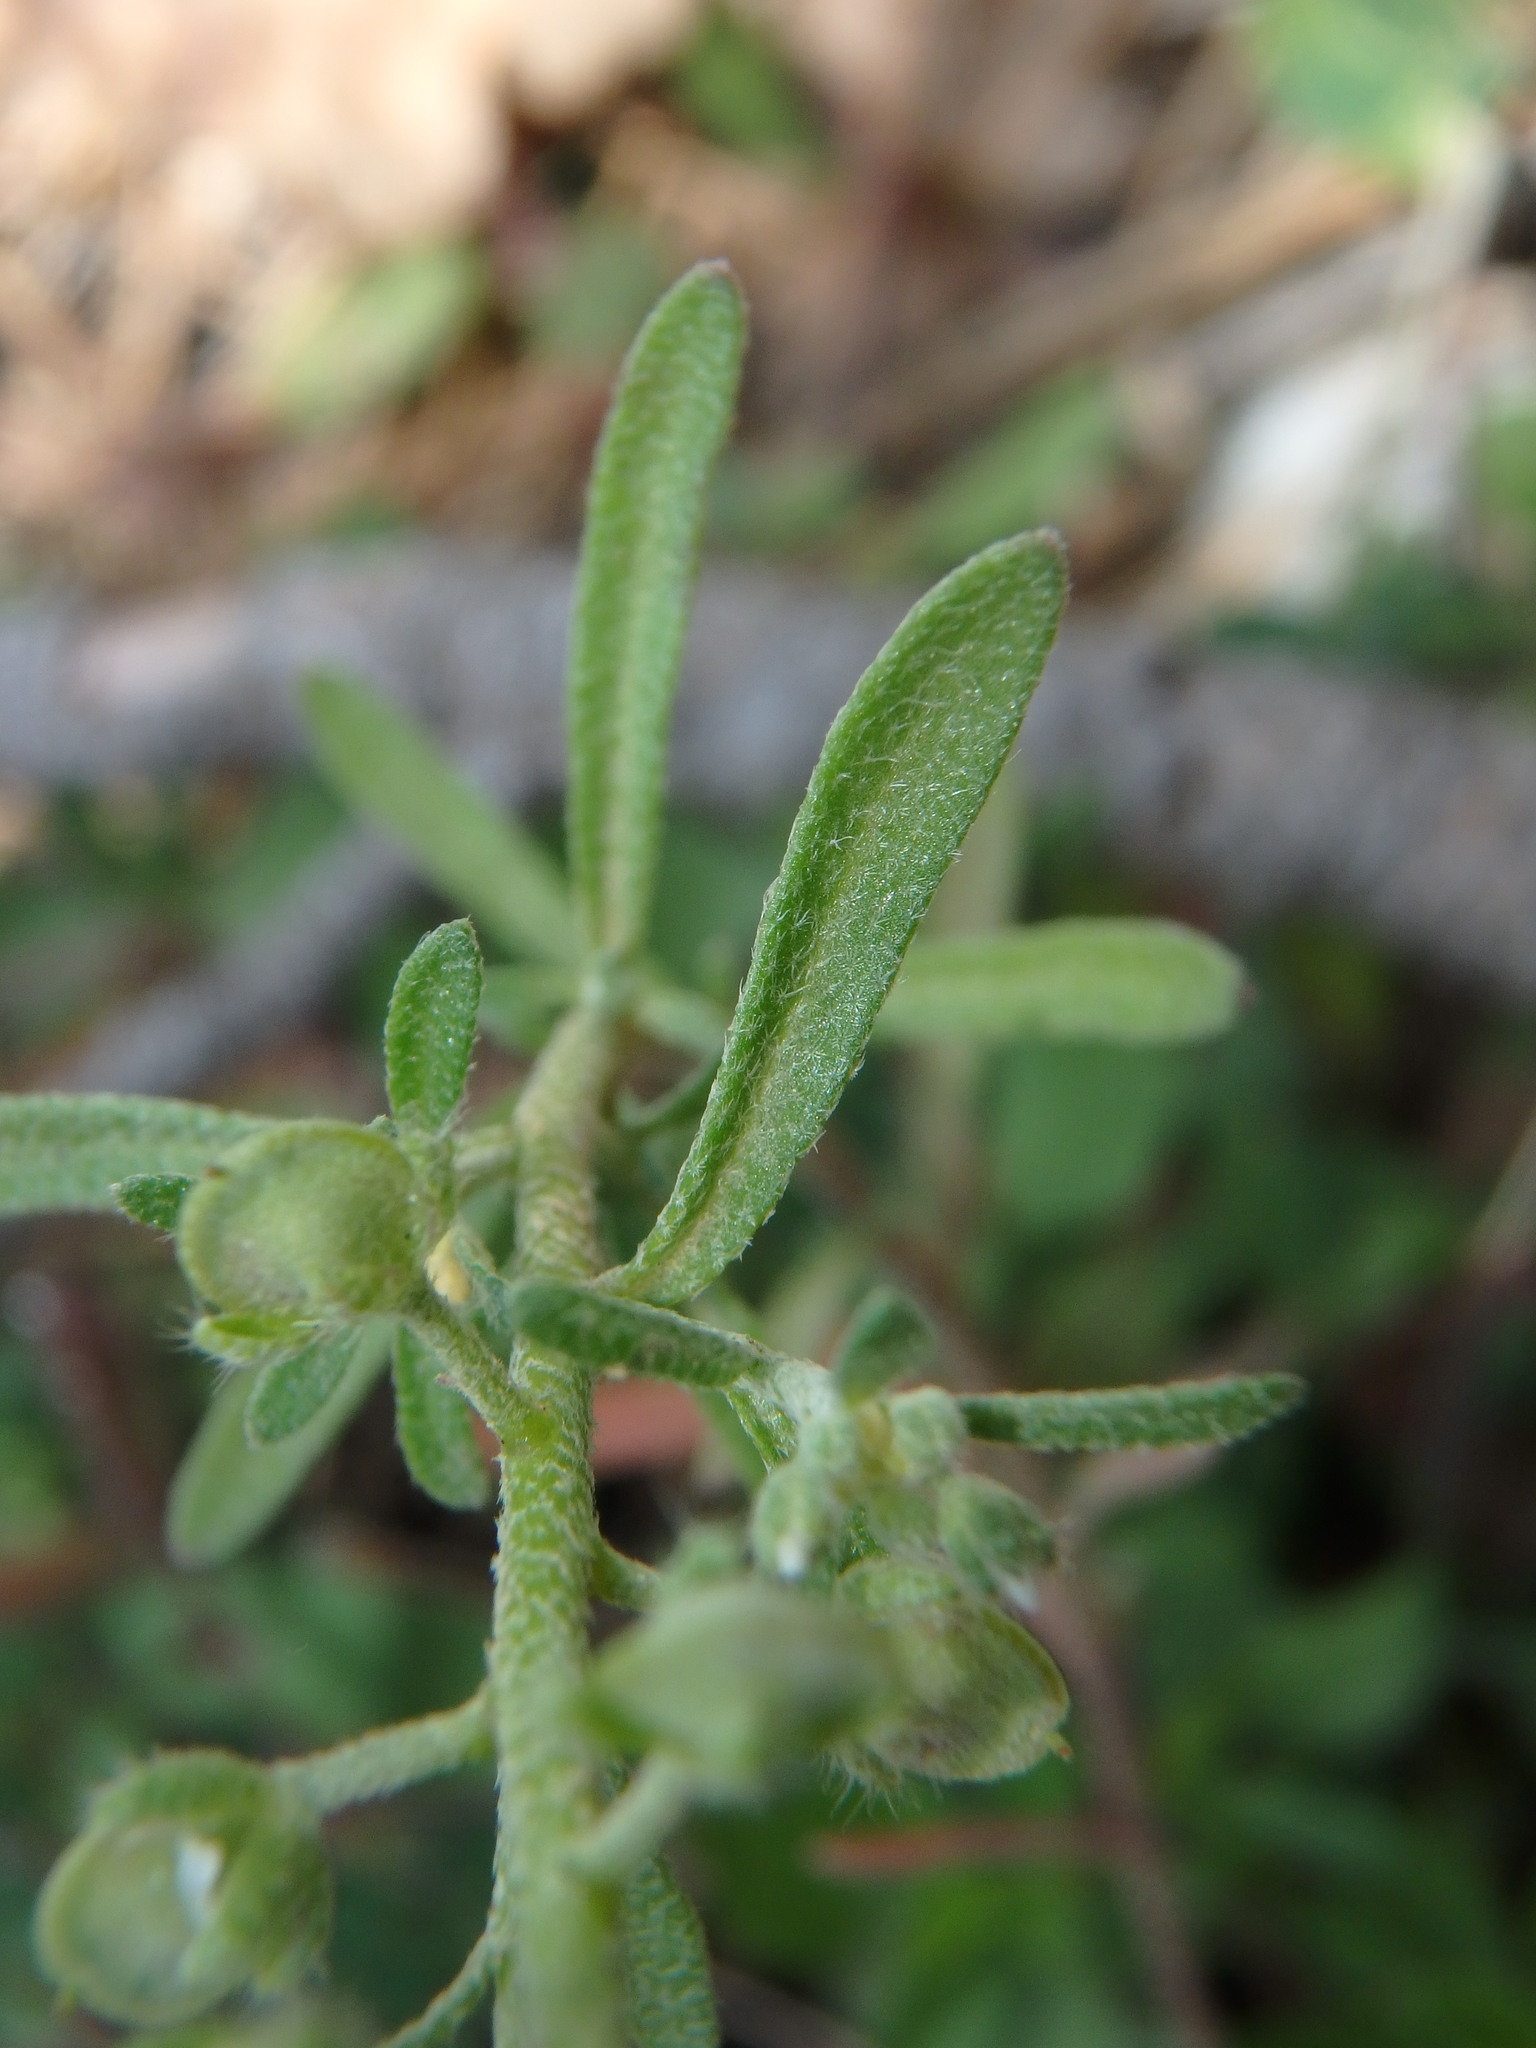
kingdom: Plantae
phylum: Tracheophyta
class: Magnoliopsida
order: Brassicales
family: Brassicaceae
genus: Alyssum
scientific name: Alyssum alyssoides
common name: Small alison
